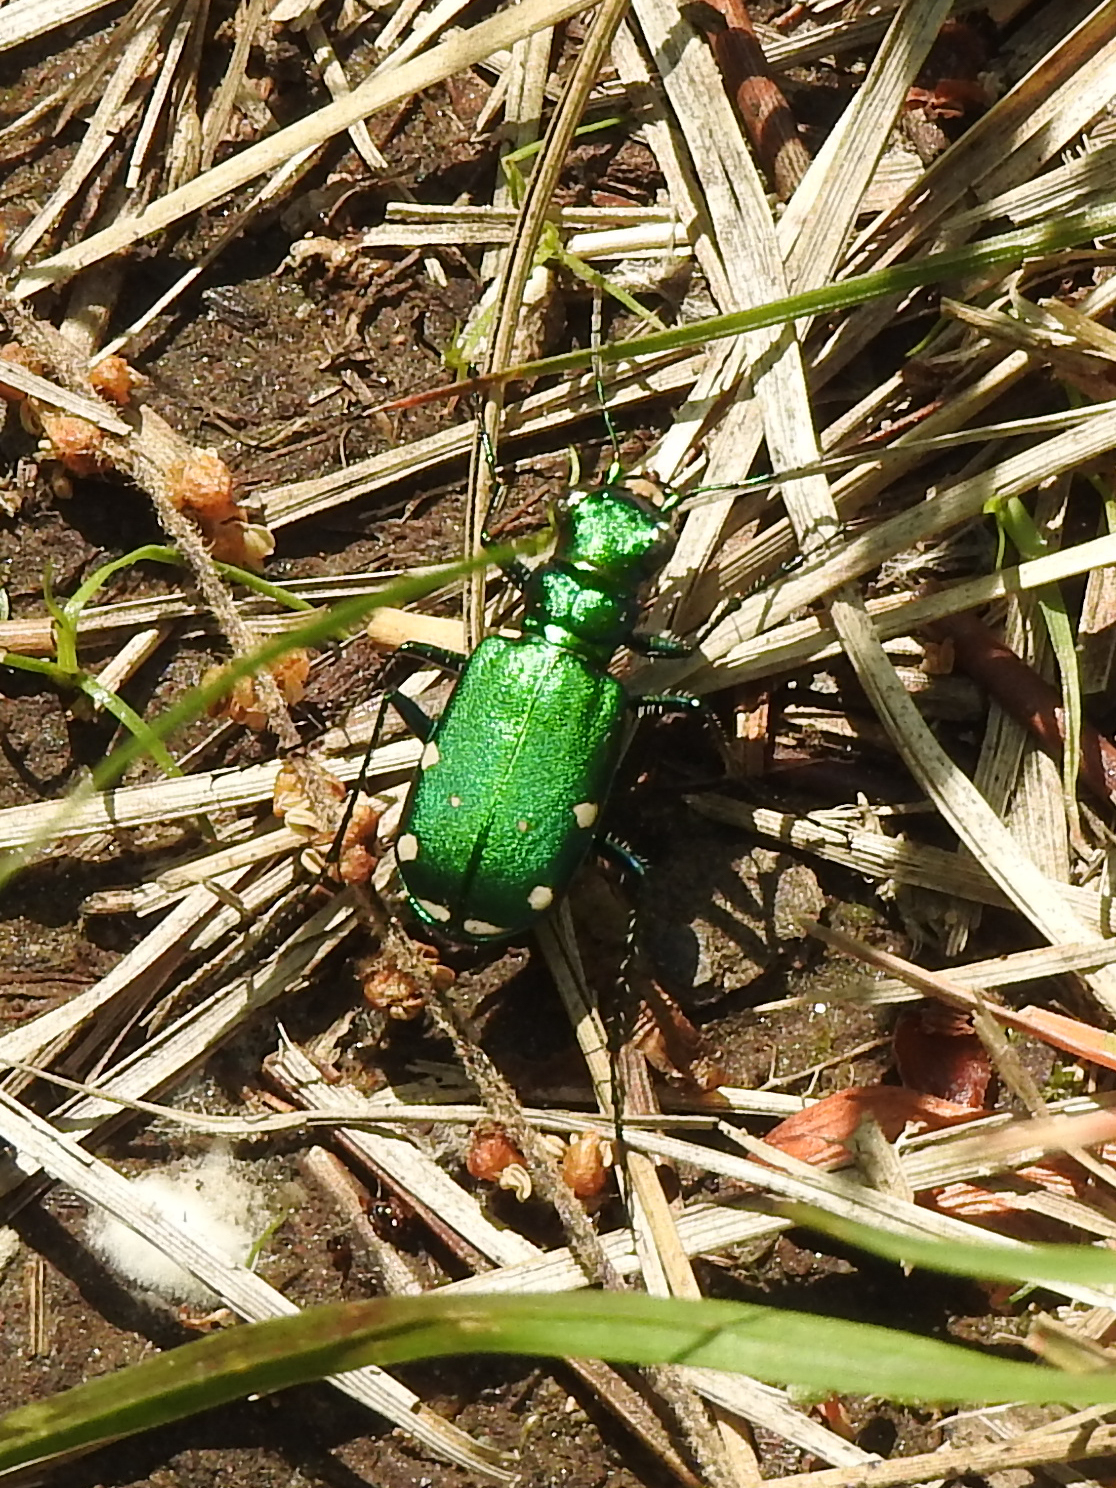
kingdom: Animalia
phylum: Arthropoda
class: Insecta
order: Coleoptera
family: Carabidae
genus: Cicindela
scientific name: Cicindela sexguttata
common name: Six-spotted tiger beetle
